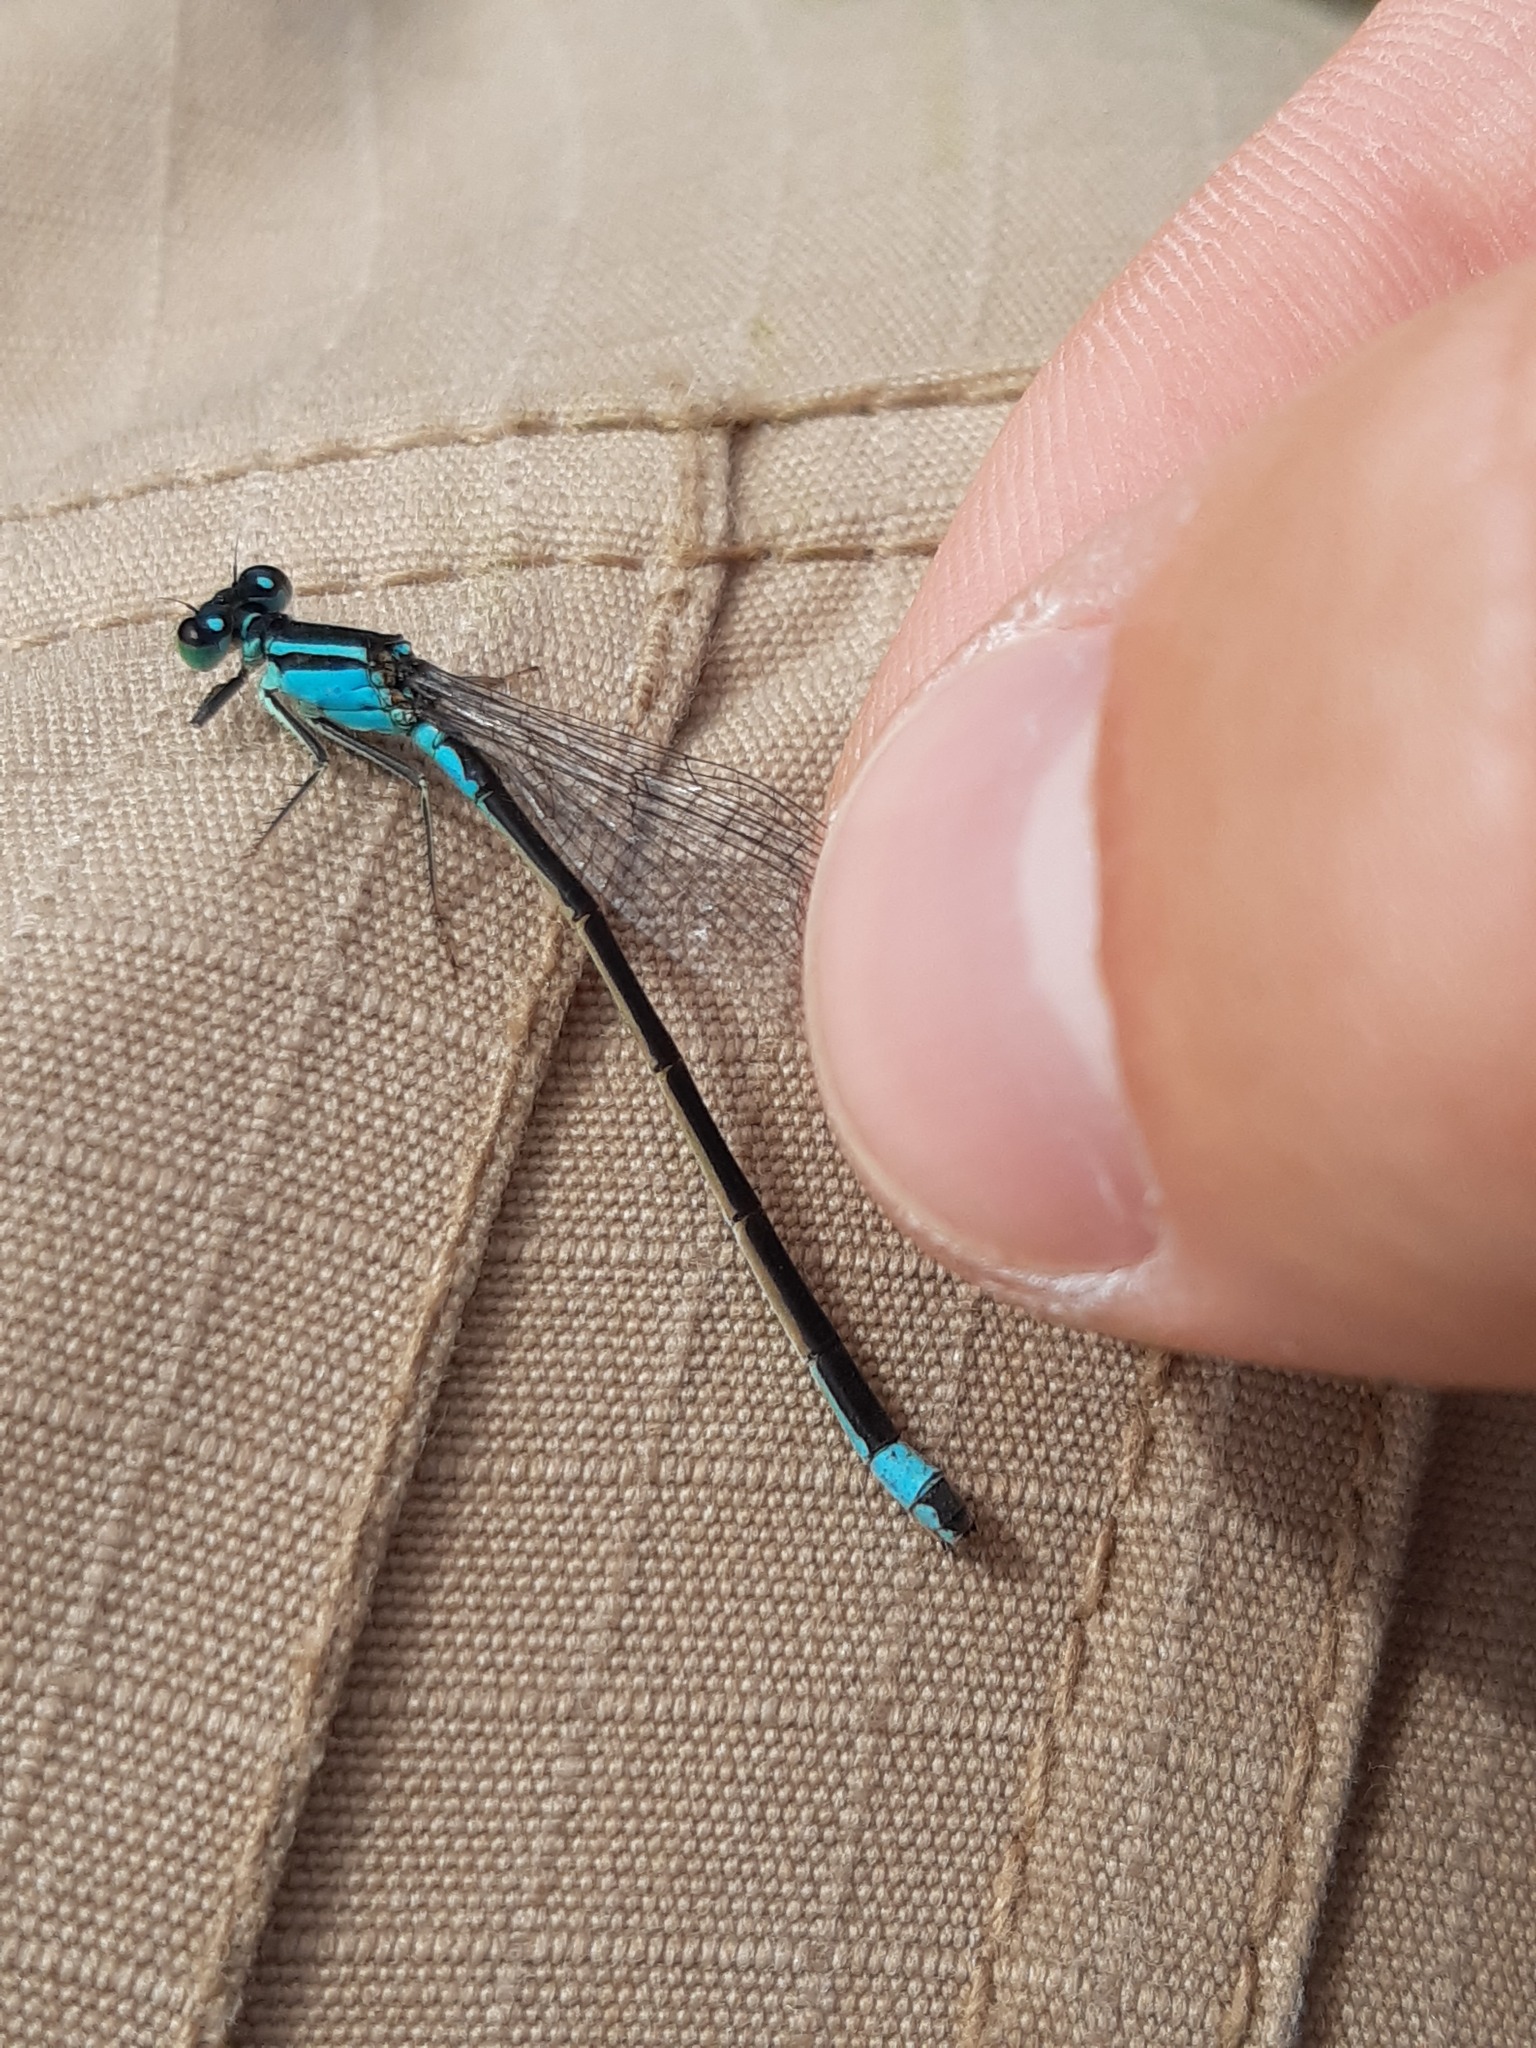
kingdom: Animalia
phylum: Arthropoda
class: Insecta
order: Odonata
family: Coenagrionidae
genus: Ischnura
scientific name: Ischnura elegans
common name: Blue-tailed damselfly
